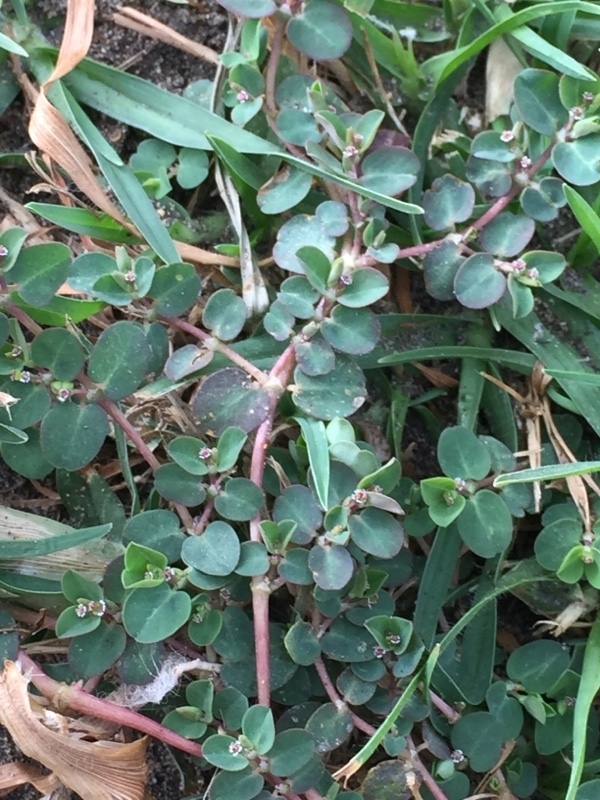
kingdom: Plantae
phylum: Tracheophyta
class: Magnoliopsida
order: Malpighiales
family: Euphorbiaceae
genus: Euphorbia
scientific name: Euphorbia serpens
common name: Matted sandmat
